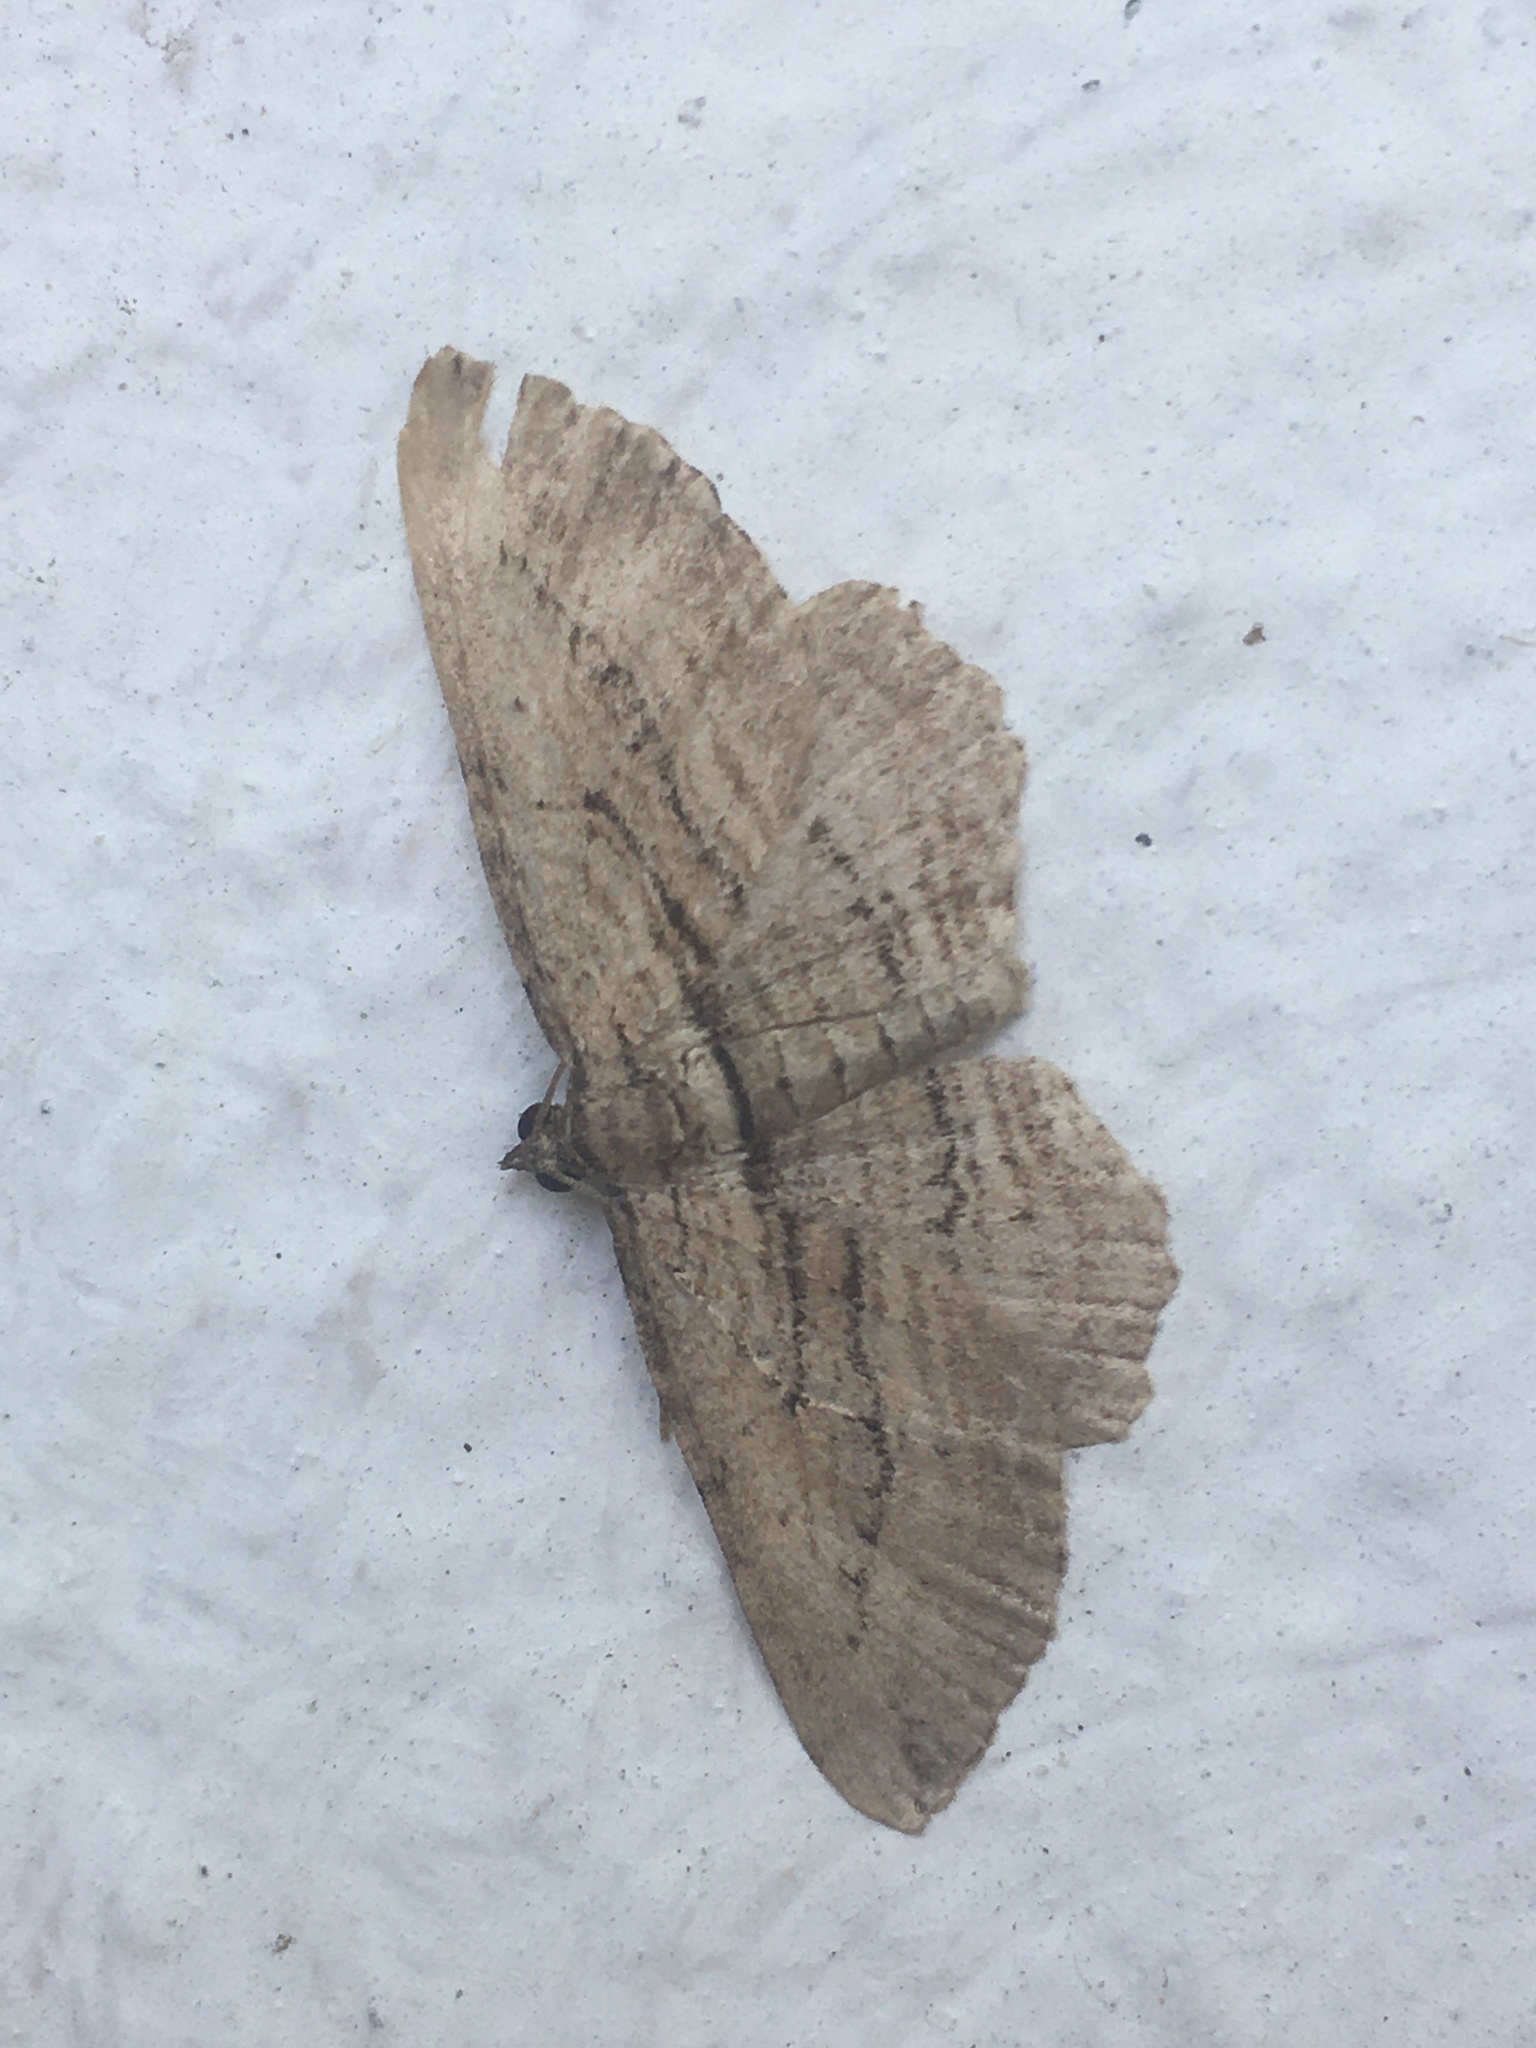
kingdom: Animalia
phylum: Arthropoda
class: Insecta
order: Lepidoptera
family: Geometridae
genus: Horisme
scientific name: Horisme tersata
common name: Fern
